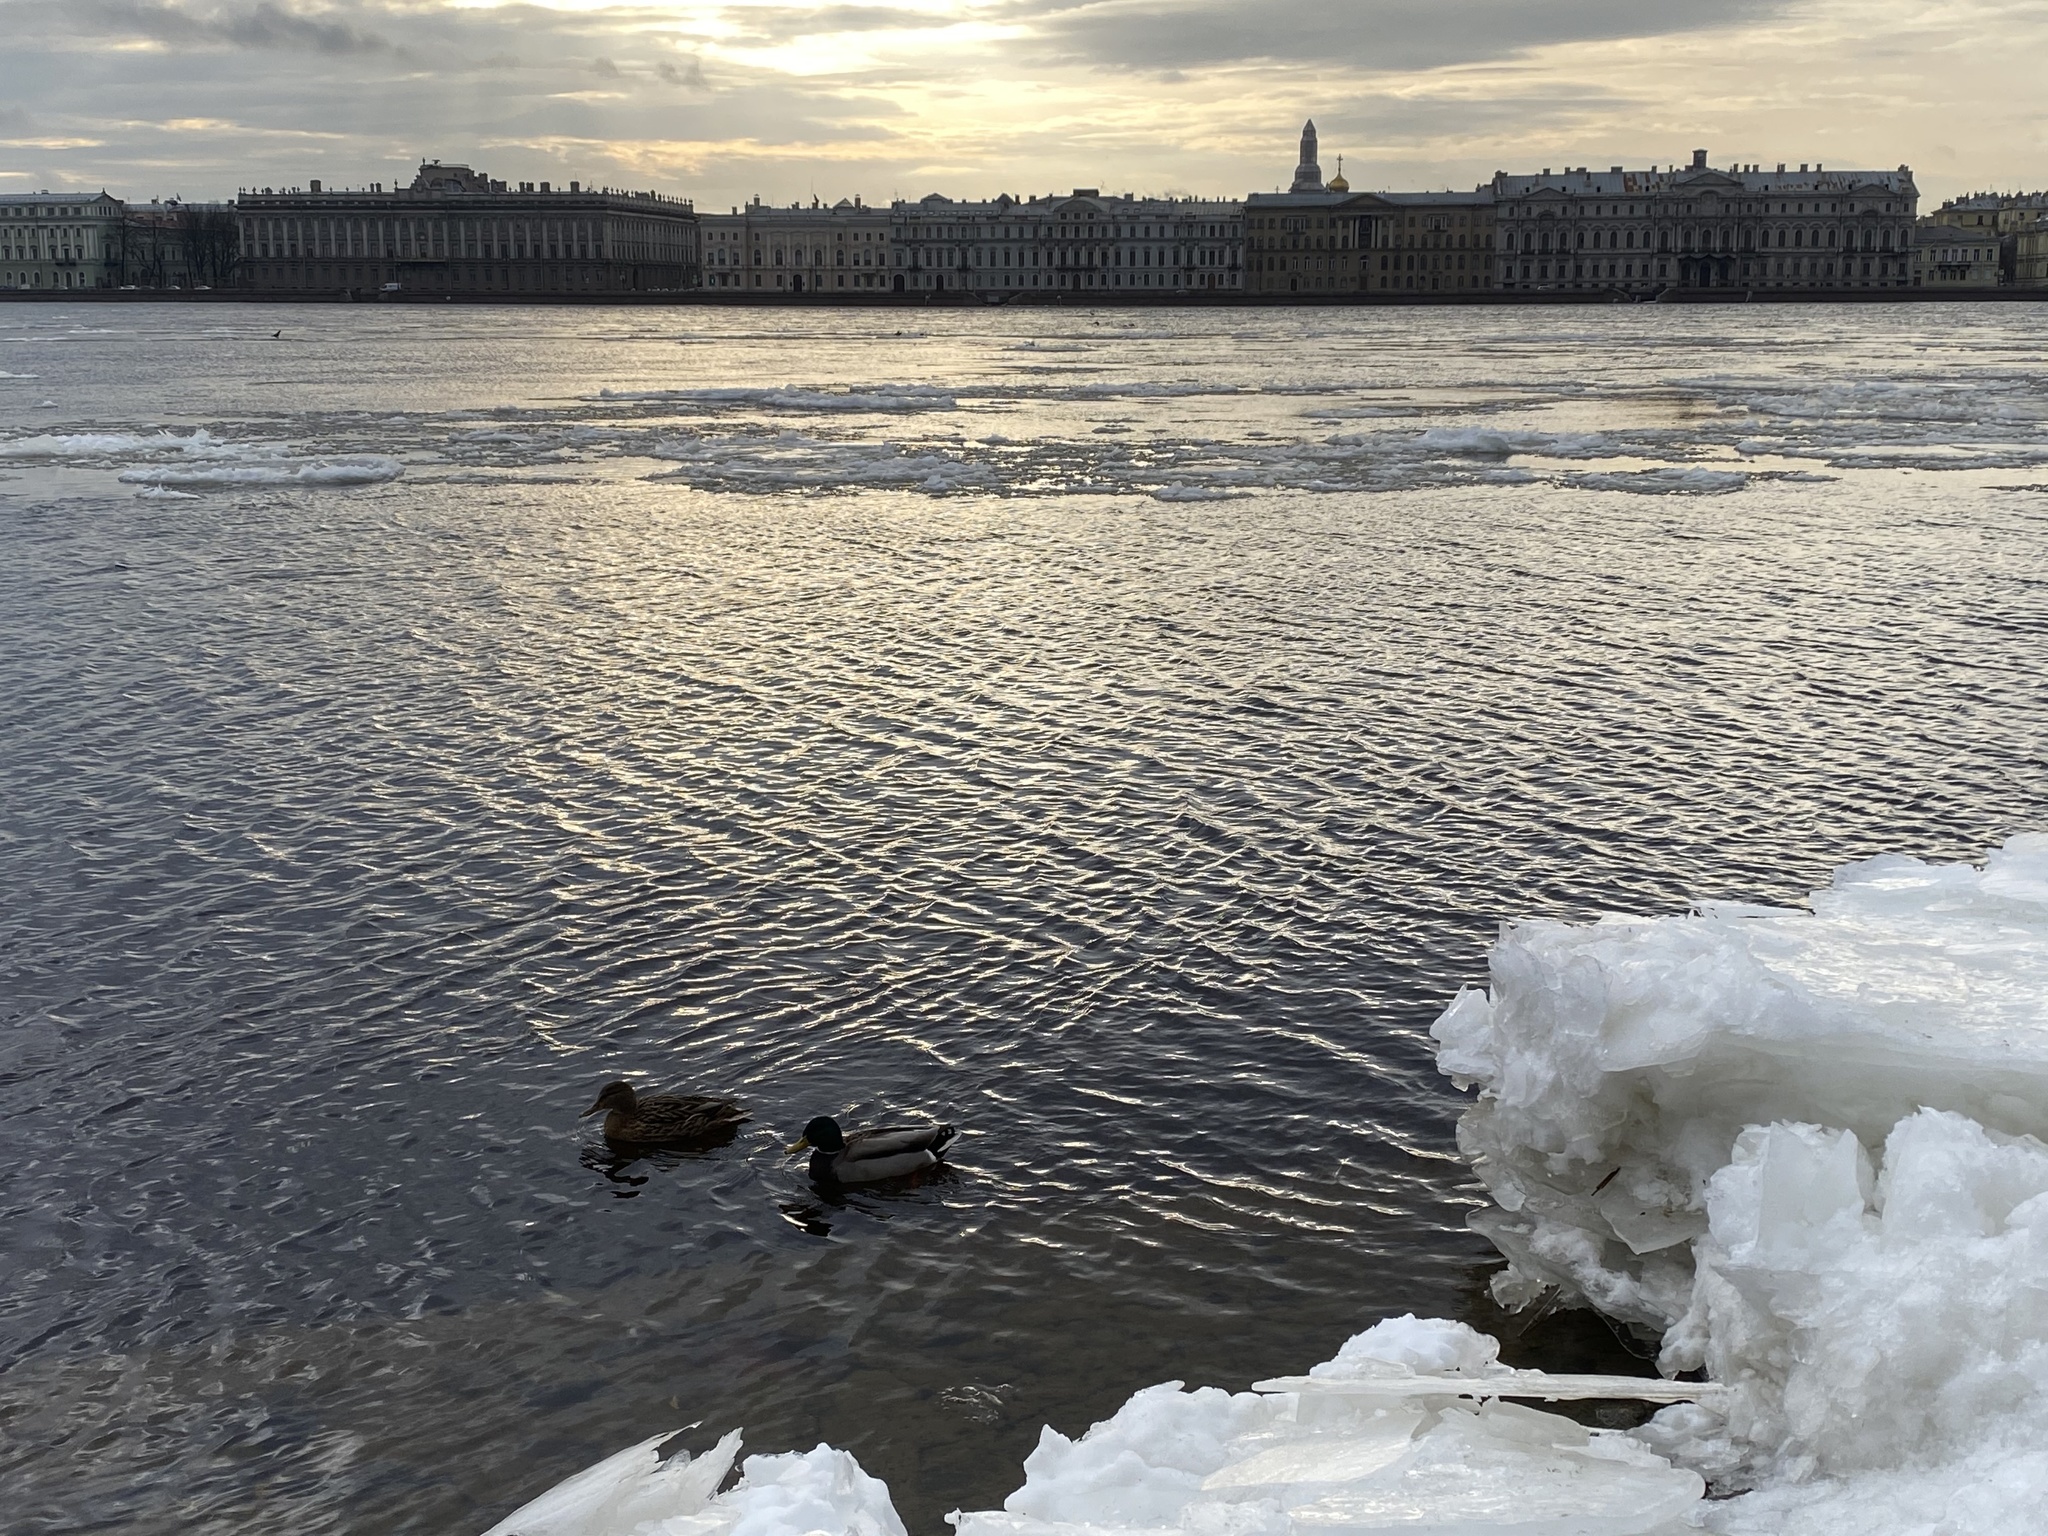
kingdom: Animalia
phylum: Chordata
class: Aves
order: Anseriformes
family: Anatidae
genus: Anas
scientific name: Anas platyrhynchos
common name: Mallard
